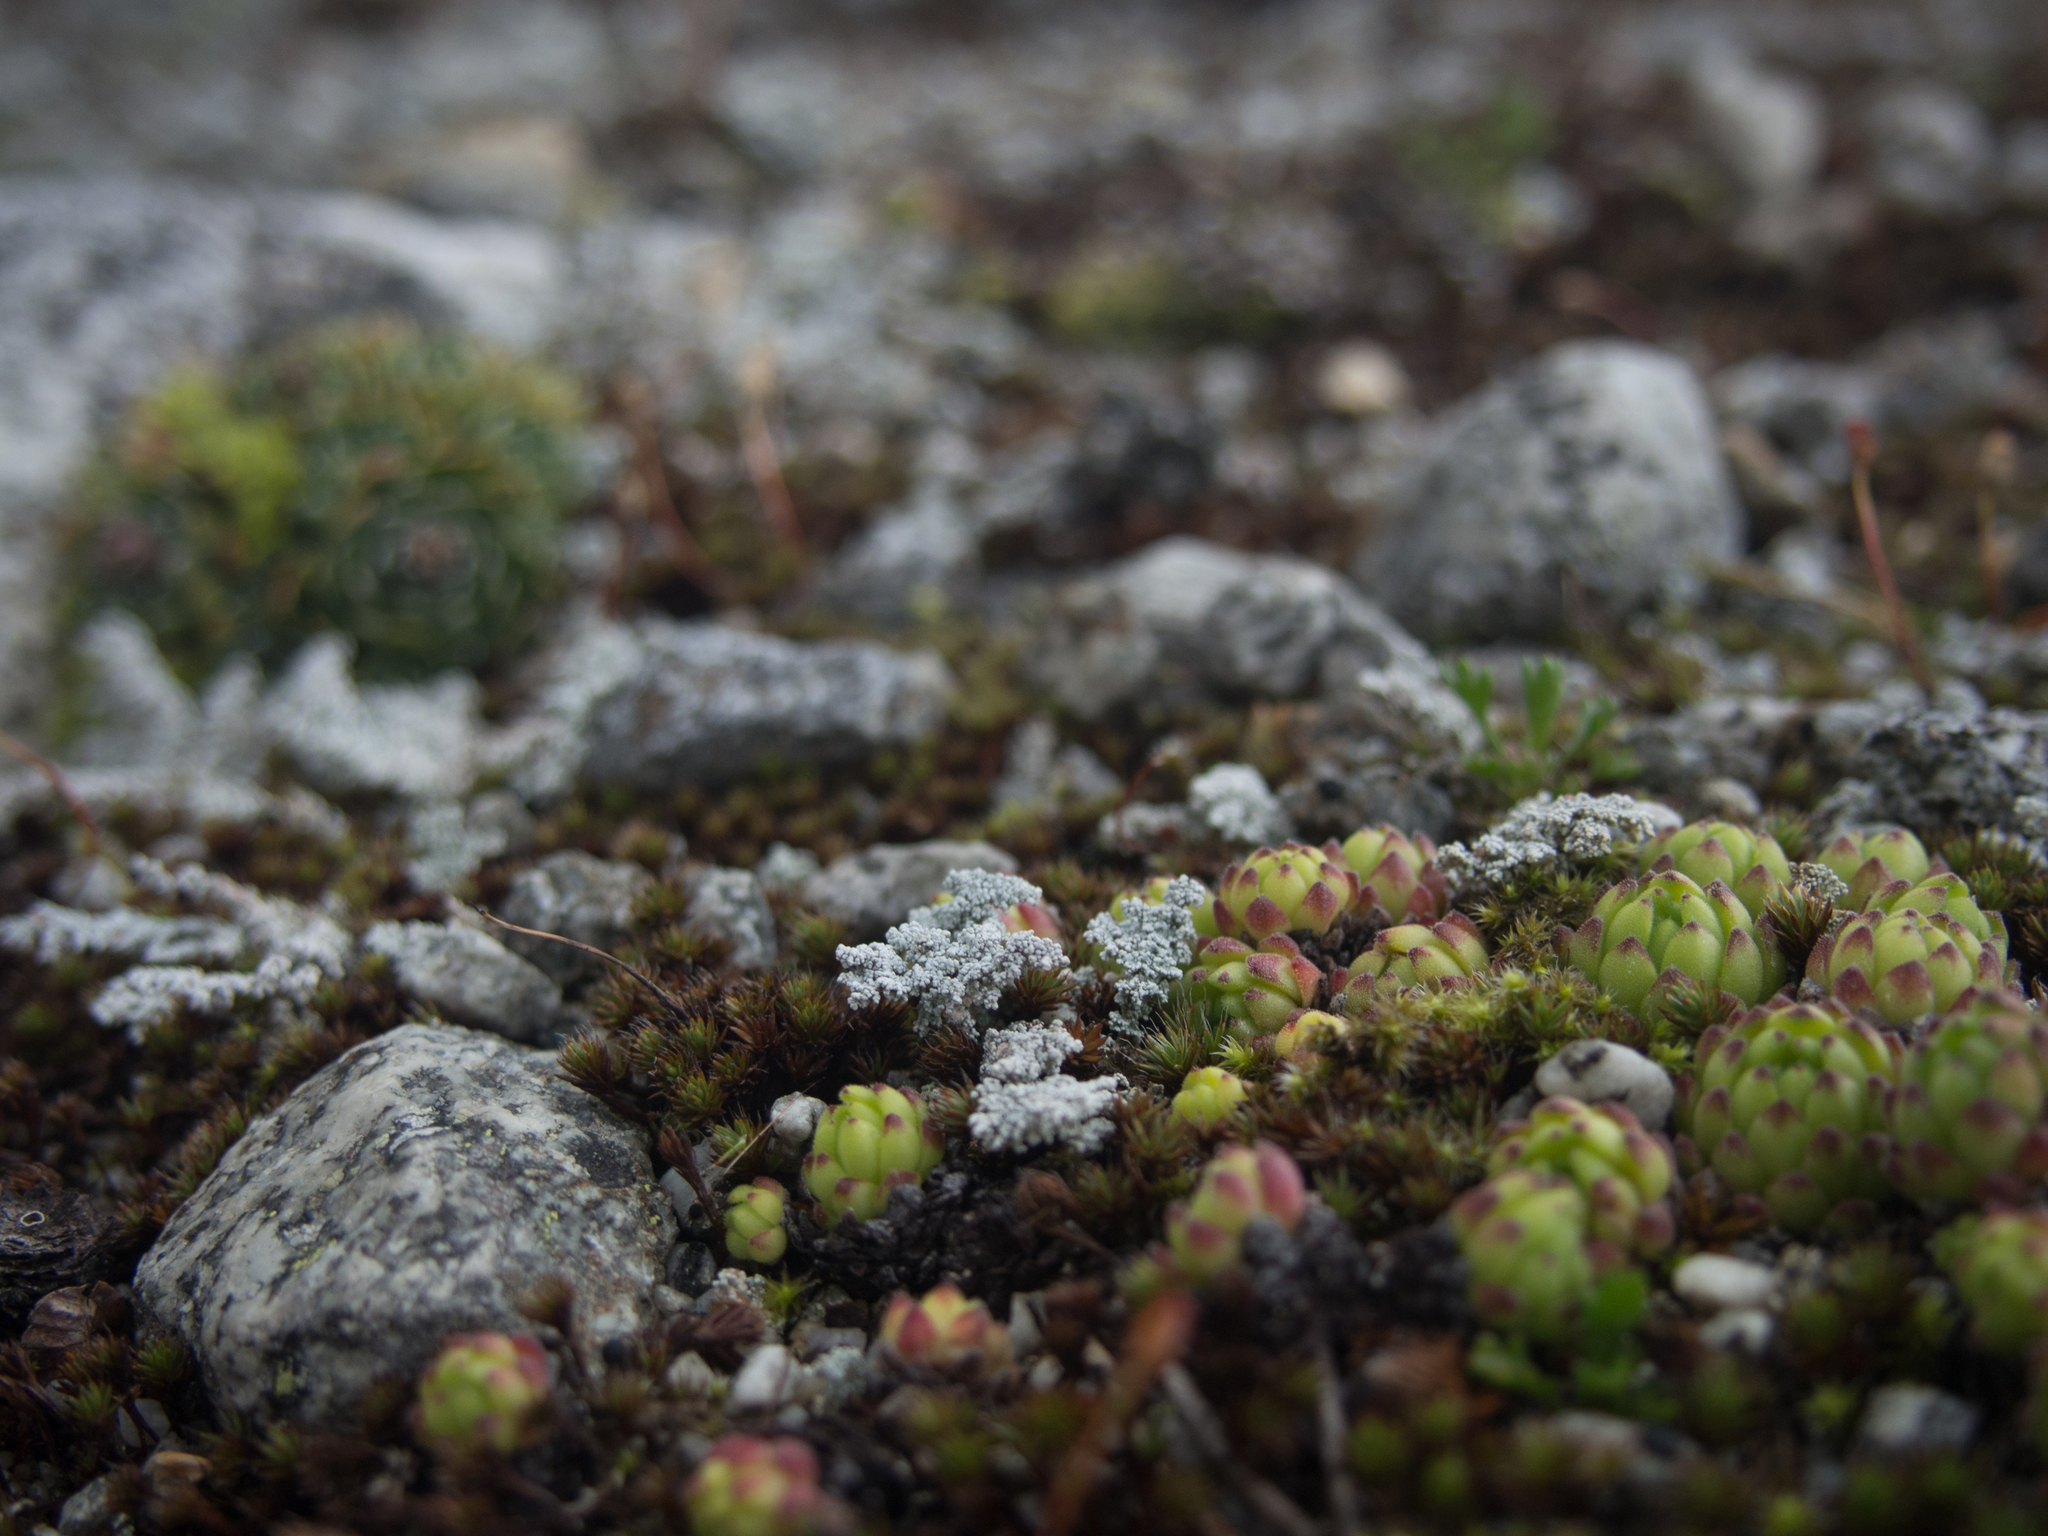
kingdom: Plantae
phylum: Tracheophyta
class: Magnoliopsida
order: Saxifragales
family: Crassulaceae
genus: Sempervivum
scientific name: Sempervivum montanum
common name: Mountain house-leek
